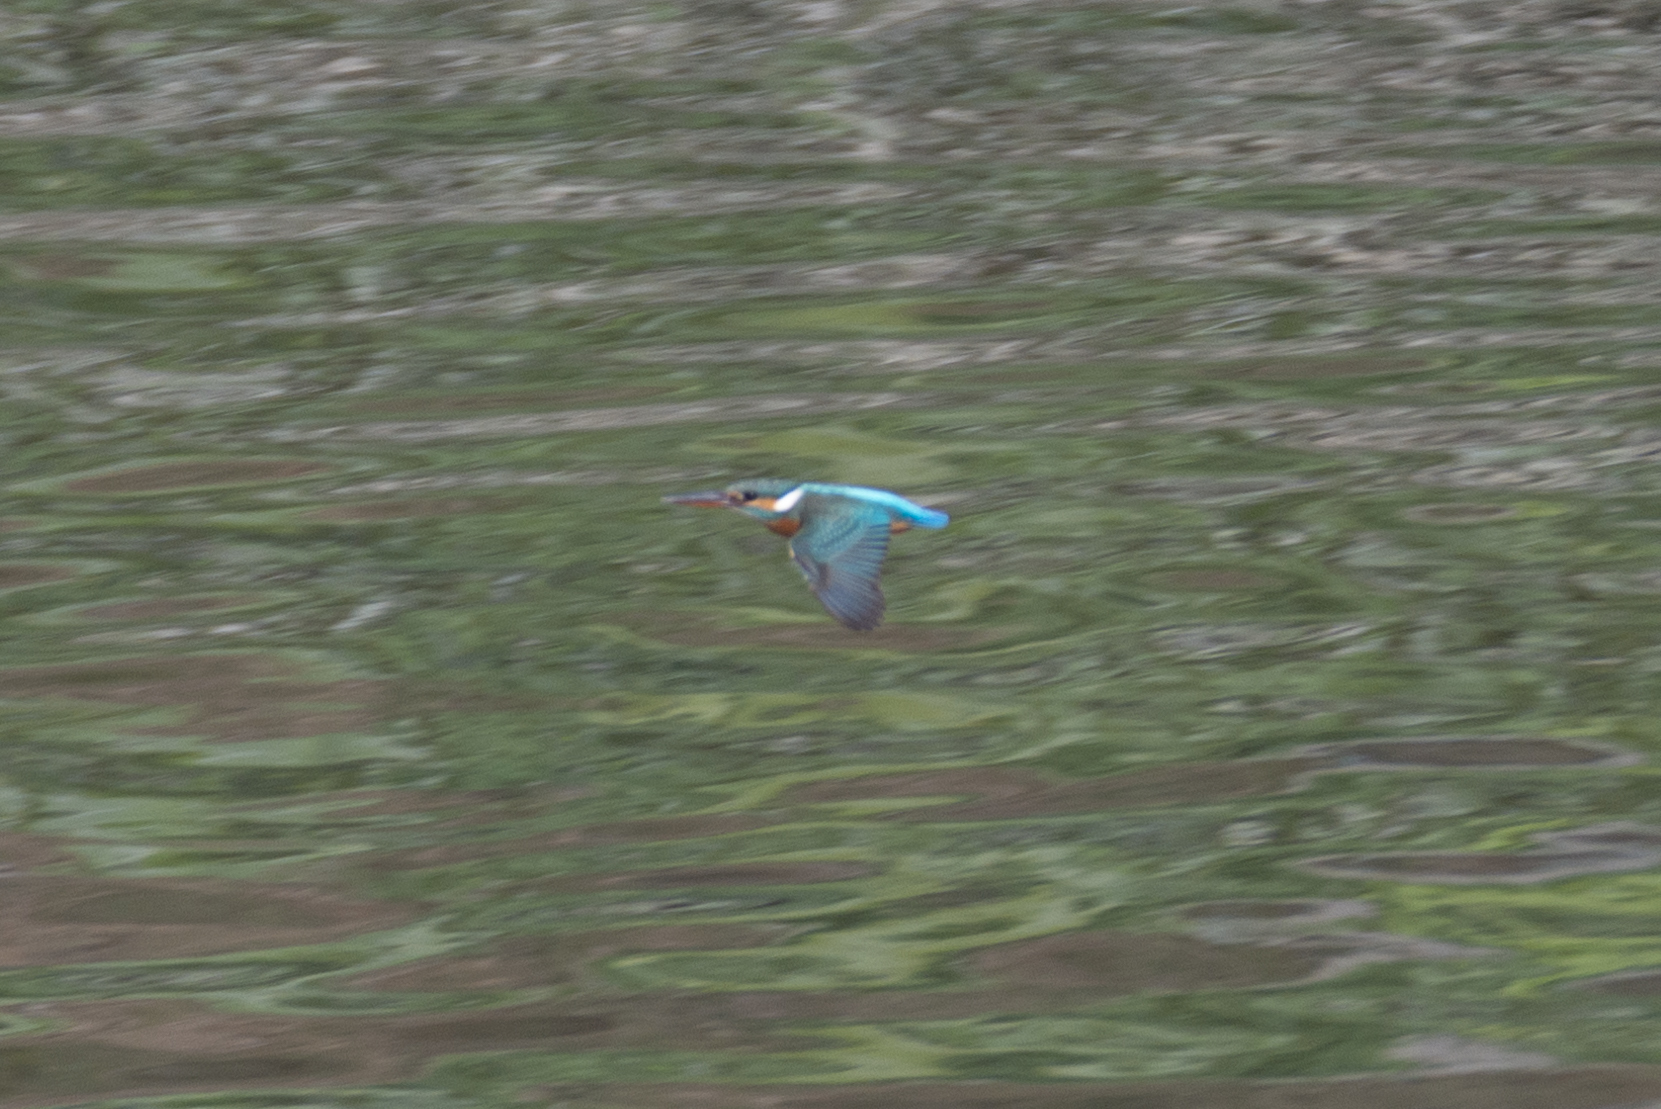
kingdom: Animalia
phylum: Chordata
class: Aves
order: Coraciiformes
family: Alcedinidae
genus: Alcedo
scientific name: Alcedo atthis
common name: Common kingfisher
